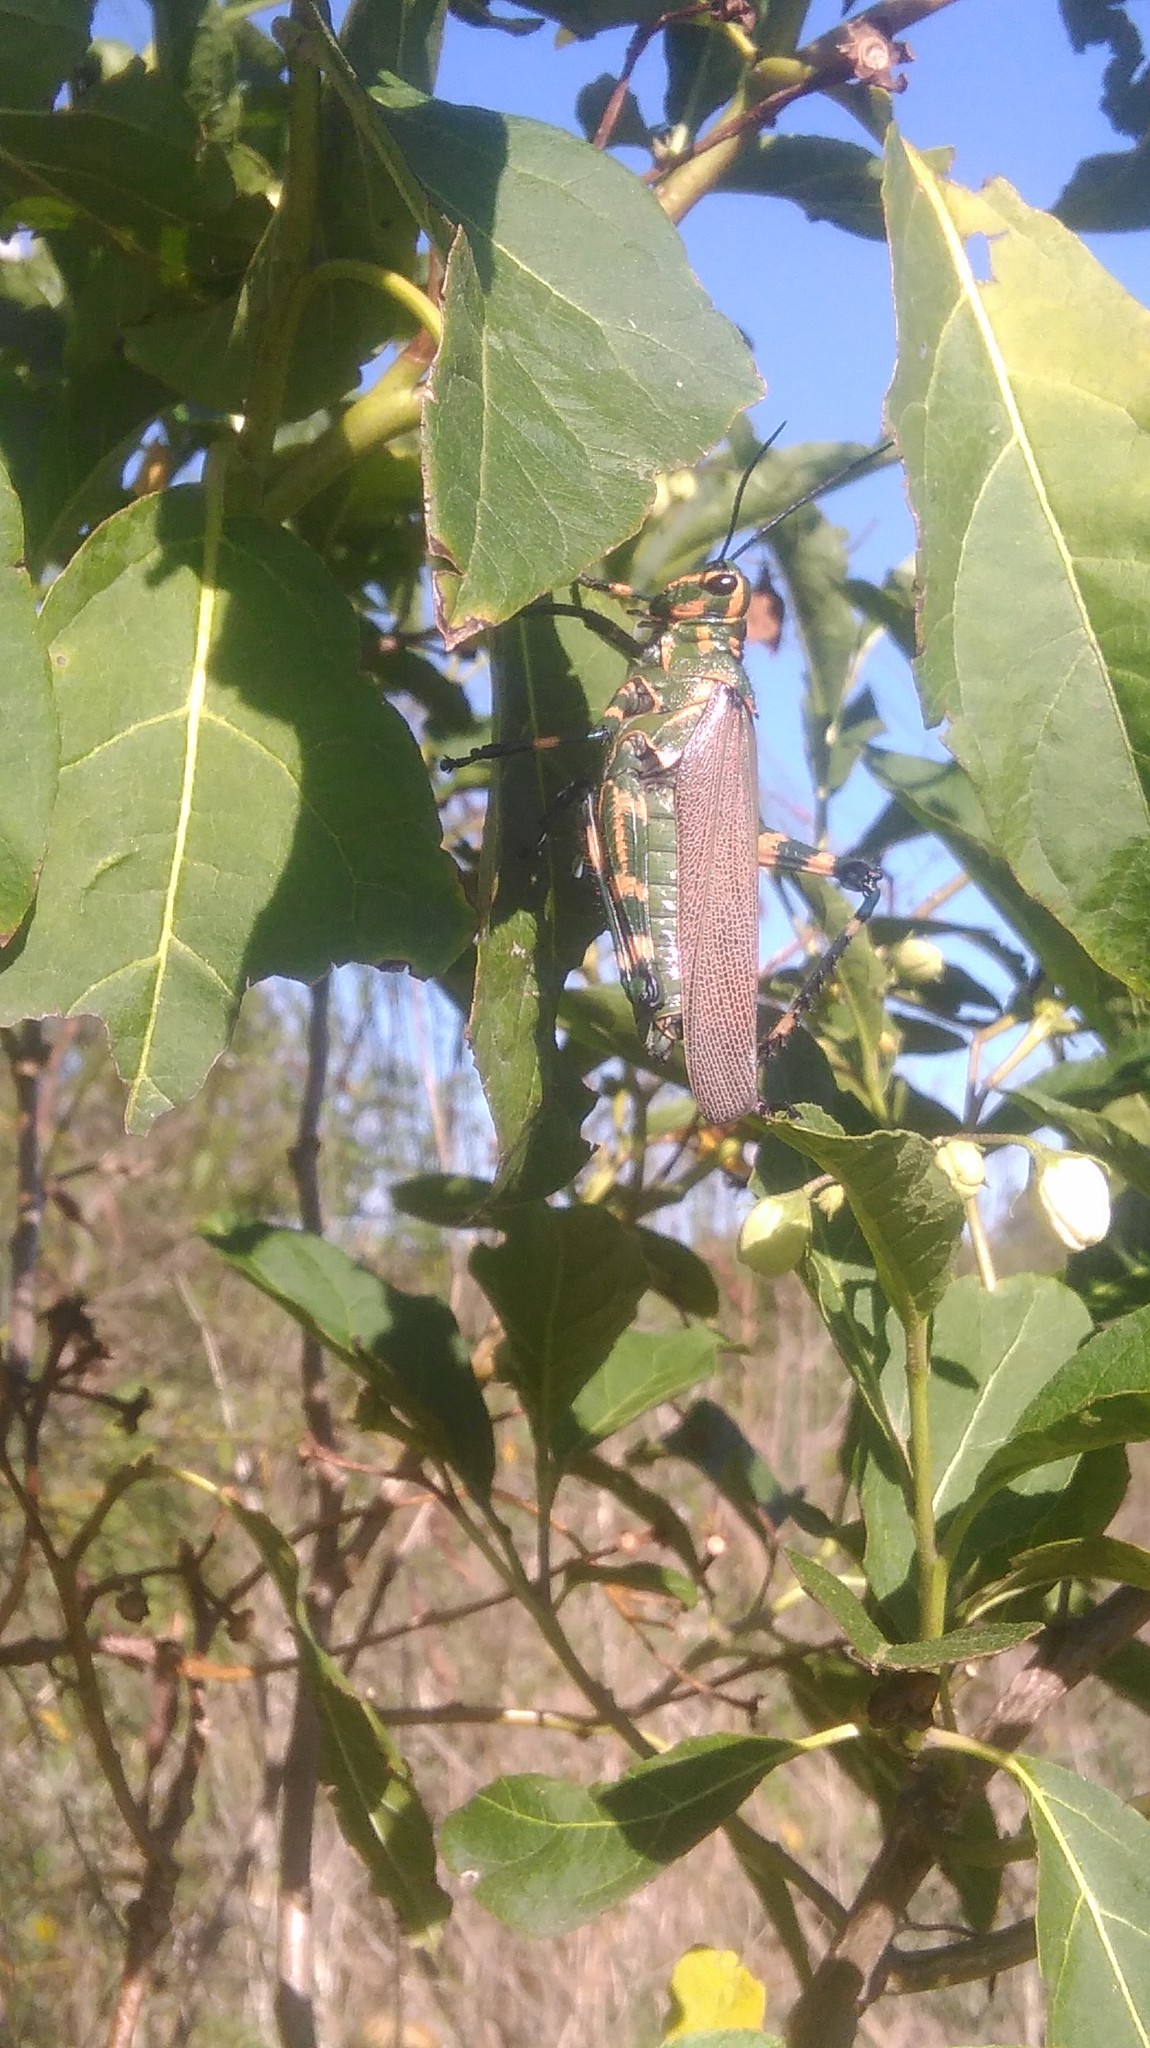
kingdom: Animalia
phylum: Arthropoda
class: Insecta
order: Orthoptera
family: Romaleidae
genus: Chromacris
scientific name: Chromacris speciosa
